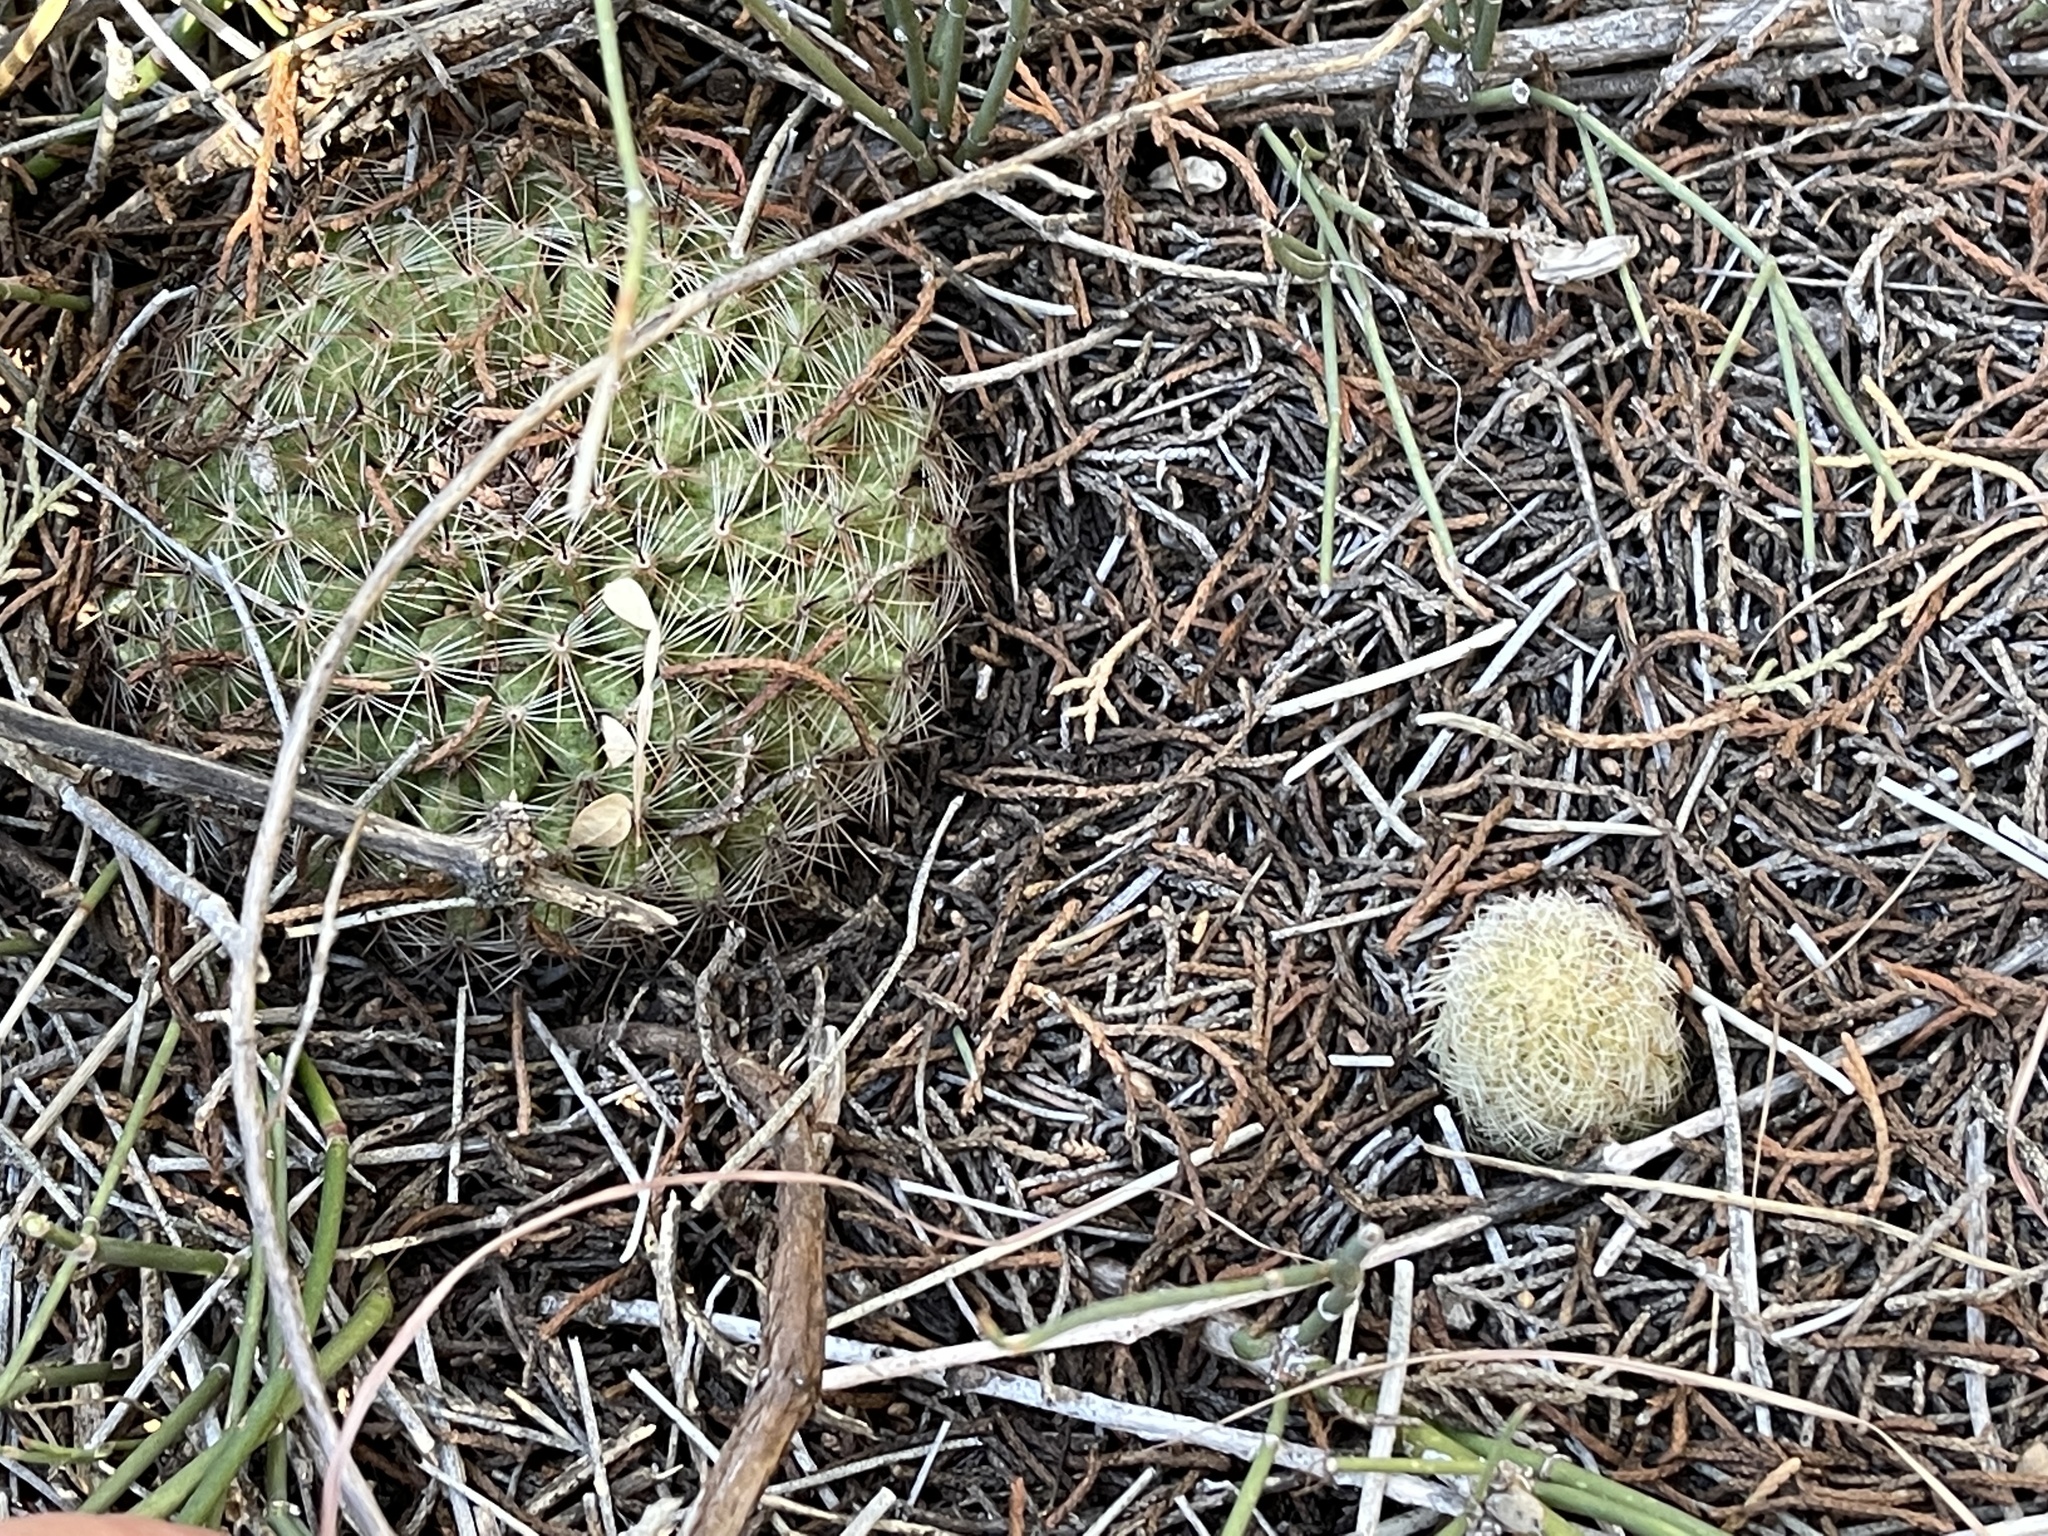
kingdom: Plantae
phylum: Tracheophyta
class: Magnoliopsida
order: Caryophyllales
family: Cactaceae
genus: Echinocereus
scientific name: Echinocereus reichenbachii
